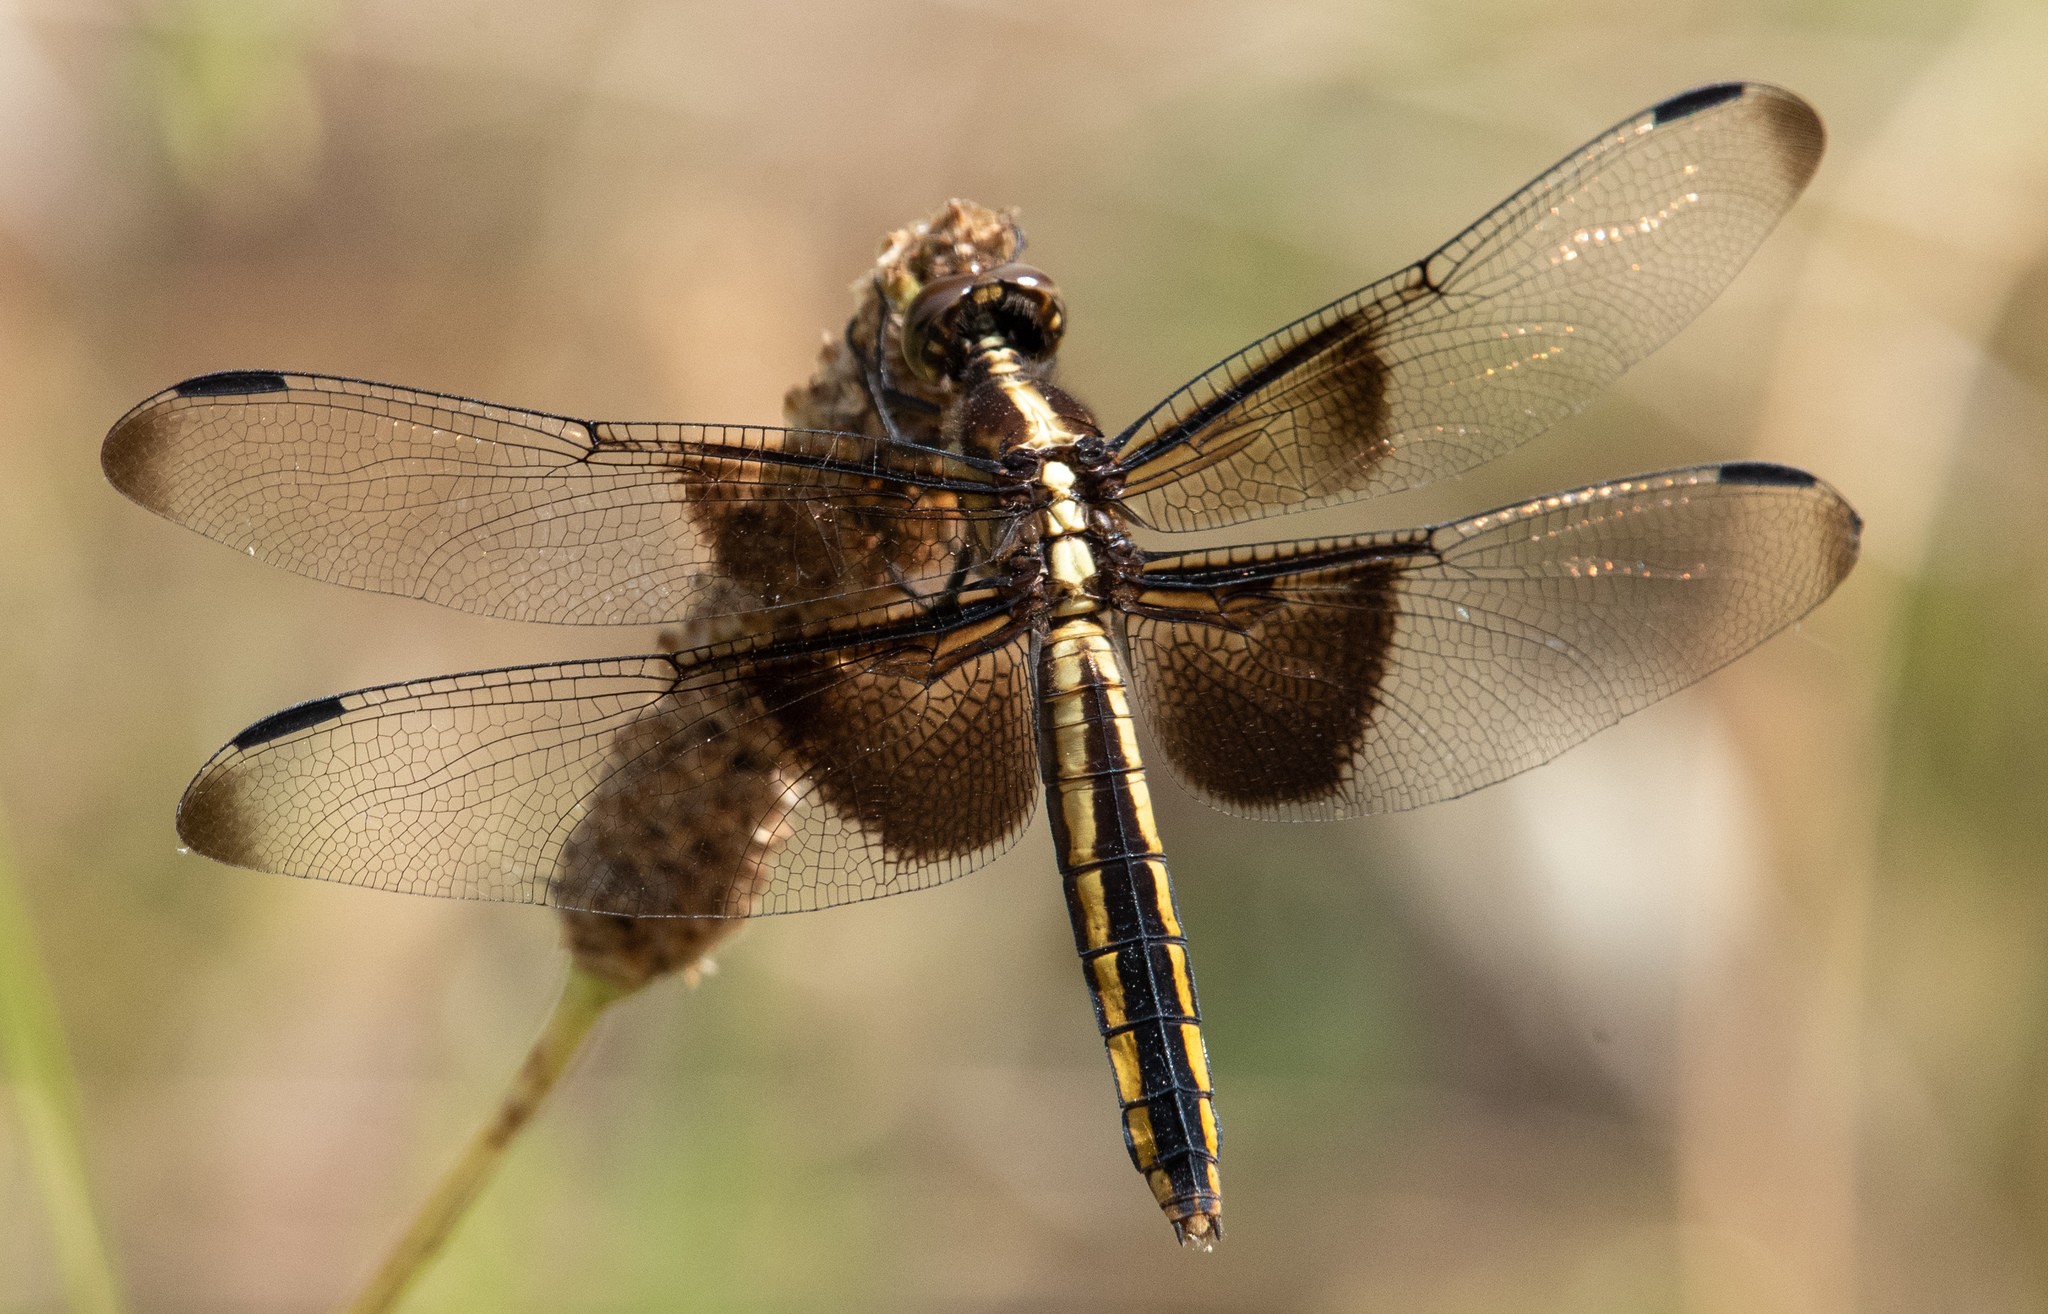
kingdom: Animalia
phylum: Arthropoda
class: Insecta
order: Odonata
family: Libellulidae
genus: Libellula
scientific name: Libellula luctuosa
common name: Widow skimmer
